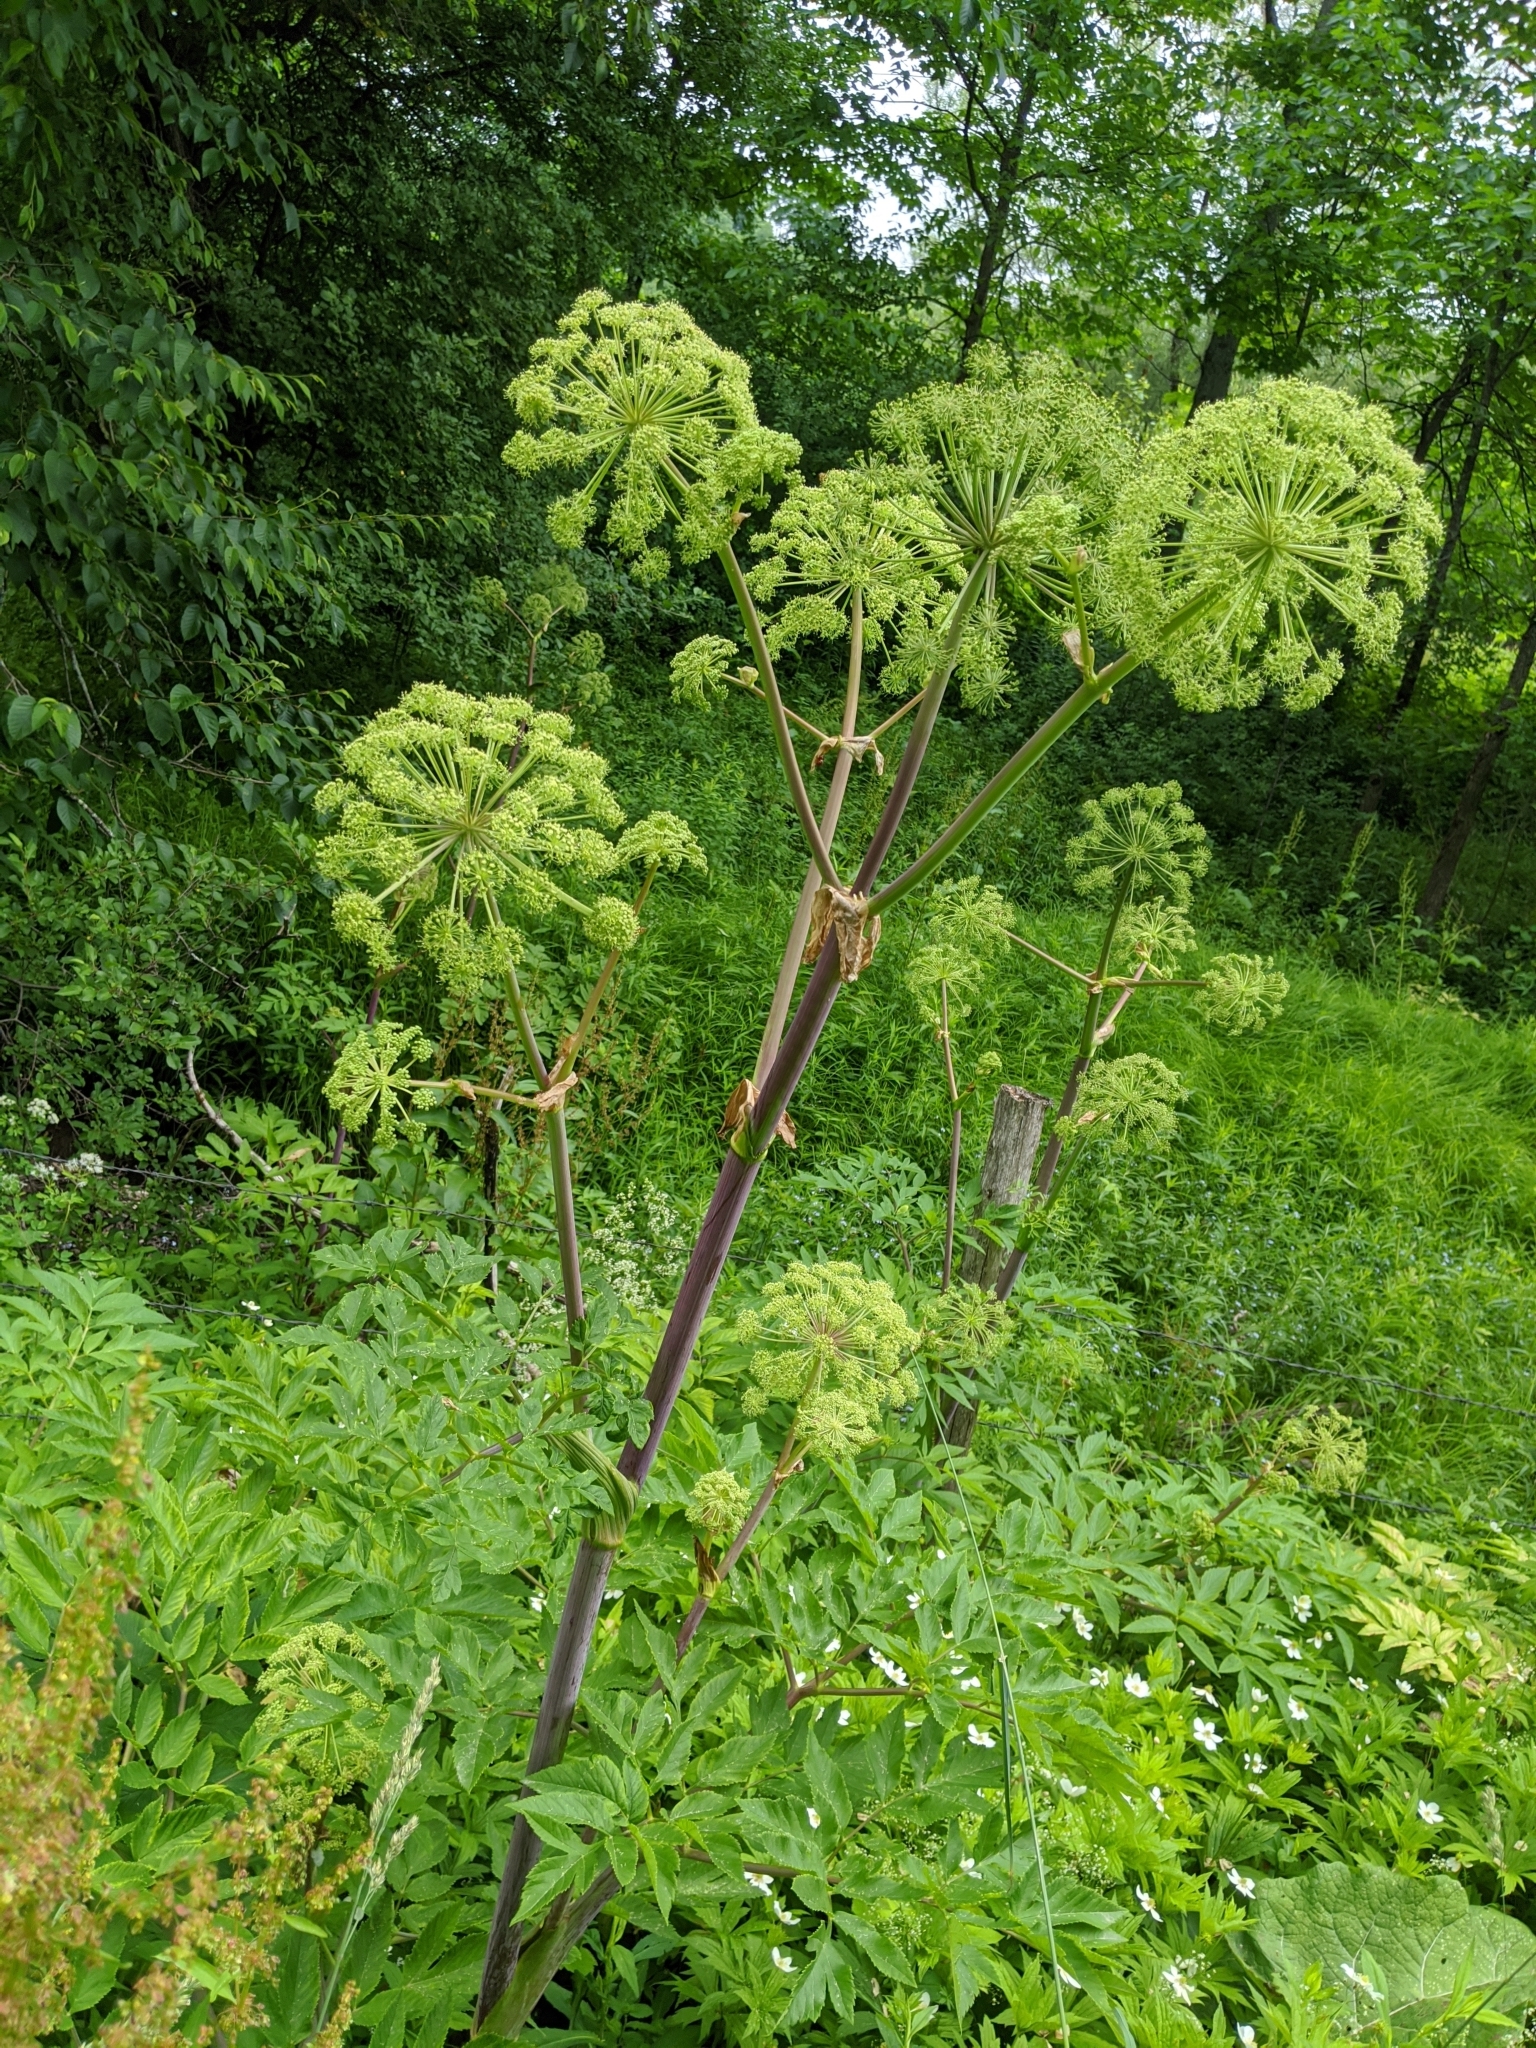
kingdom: Plantae
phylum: Tracheophyta
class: Magnoliopsida
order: Apiales
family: Apiaceae
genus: Angelica
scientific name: Angelica atropurpurea
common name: Great angelica
